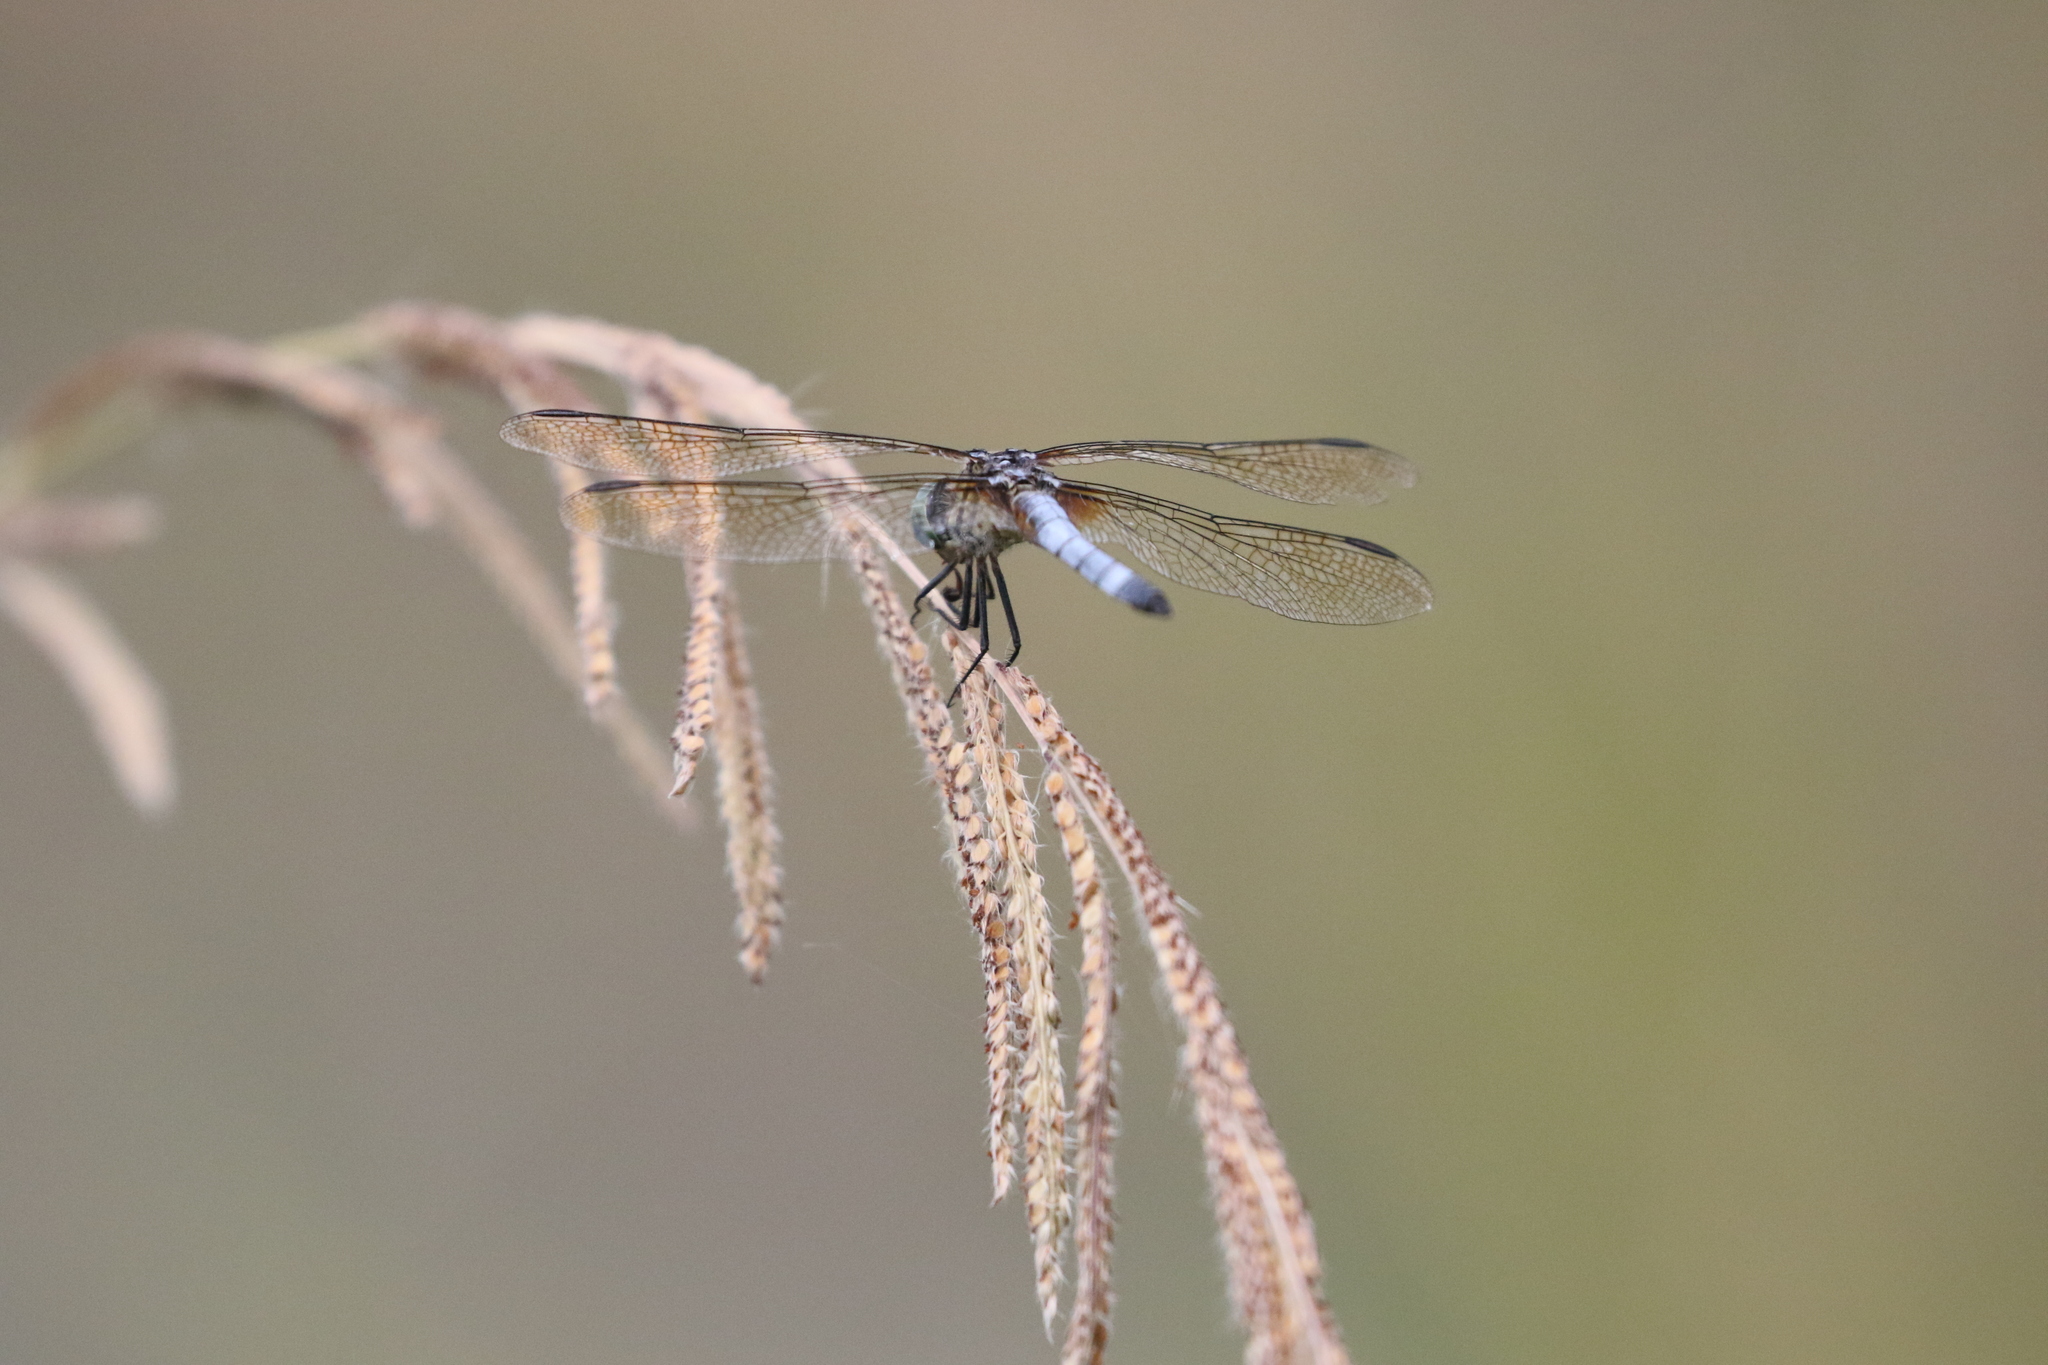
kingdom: Animalia
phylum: Arthropoda
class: Insecta
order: Odonata
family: Libellulidae
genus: Pachydiplax
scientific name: Pachydiplax longipennis
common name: Blue dasher
